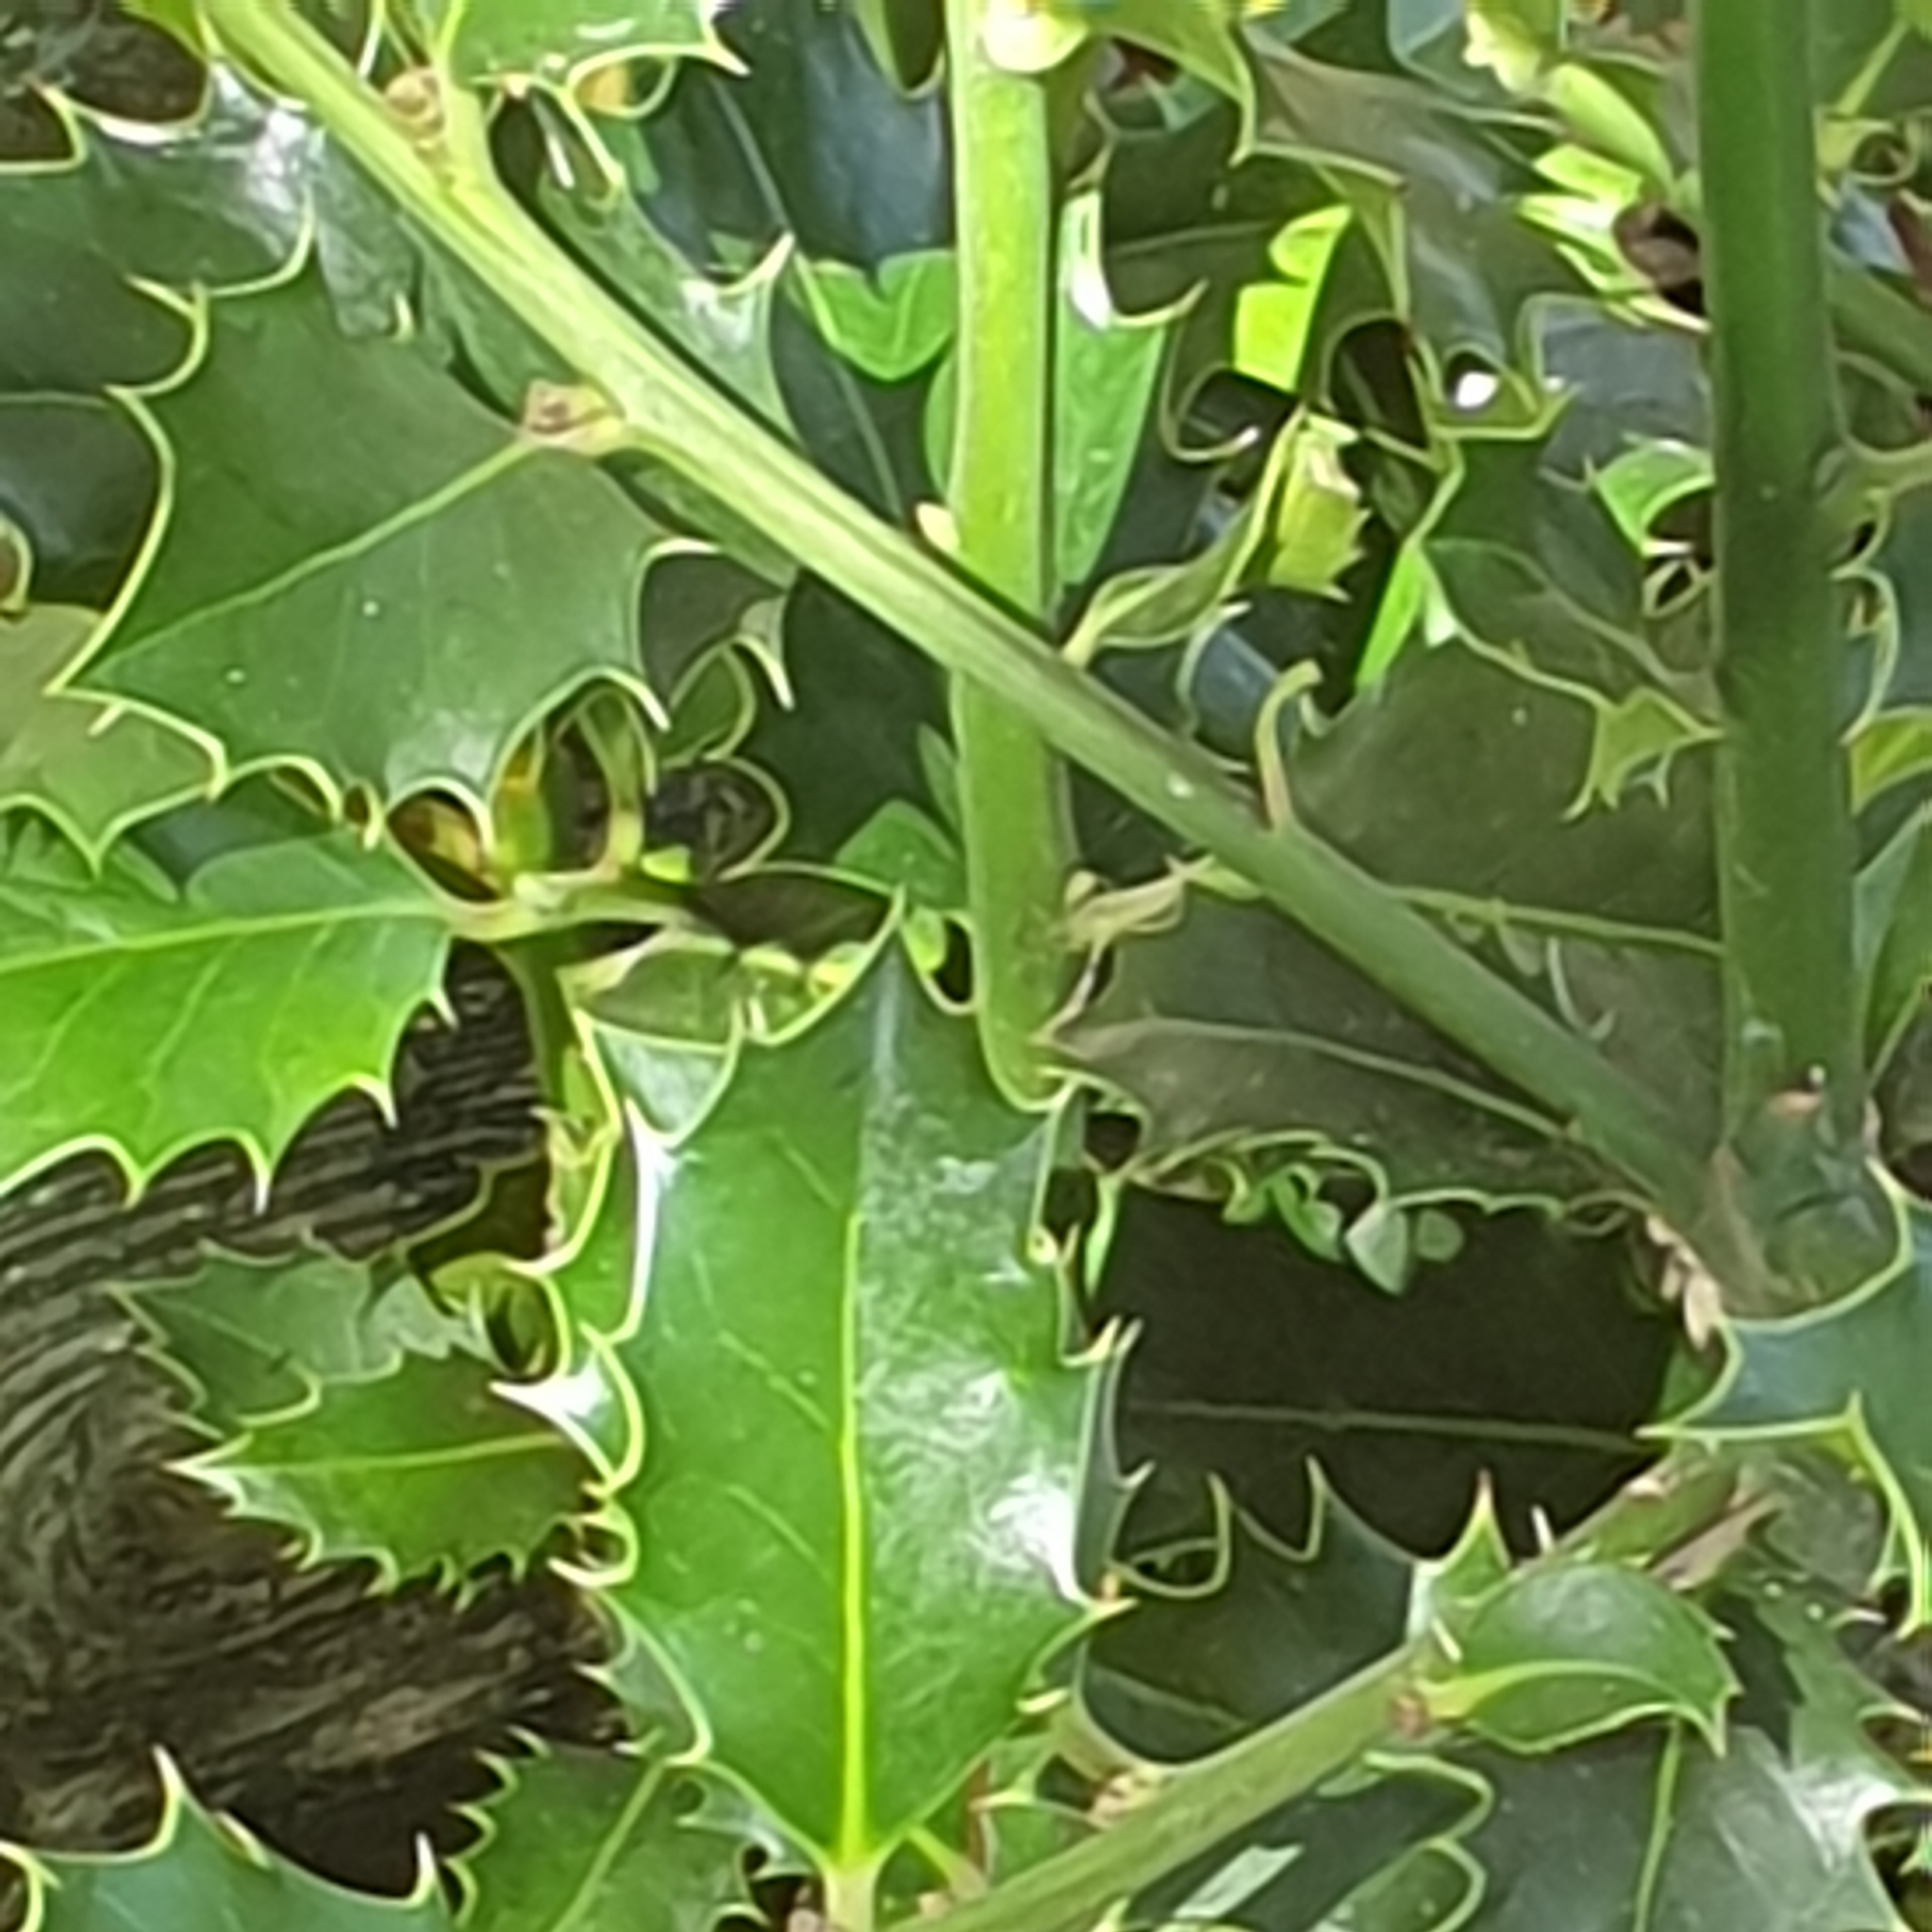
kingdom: Plantae
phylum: Tracheophyta
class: Magnoliopsida
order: Aquifoliales
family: Aquifoliaceae
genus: Ilex
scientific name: Ilex aquifolium
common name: English holly
